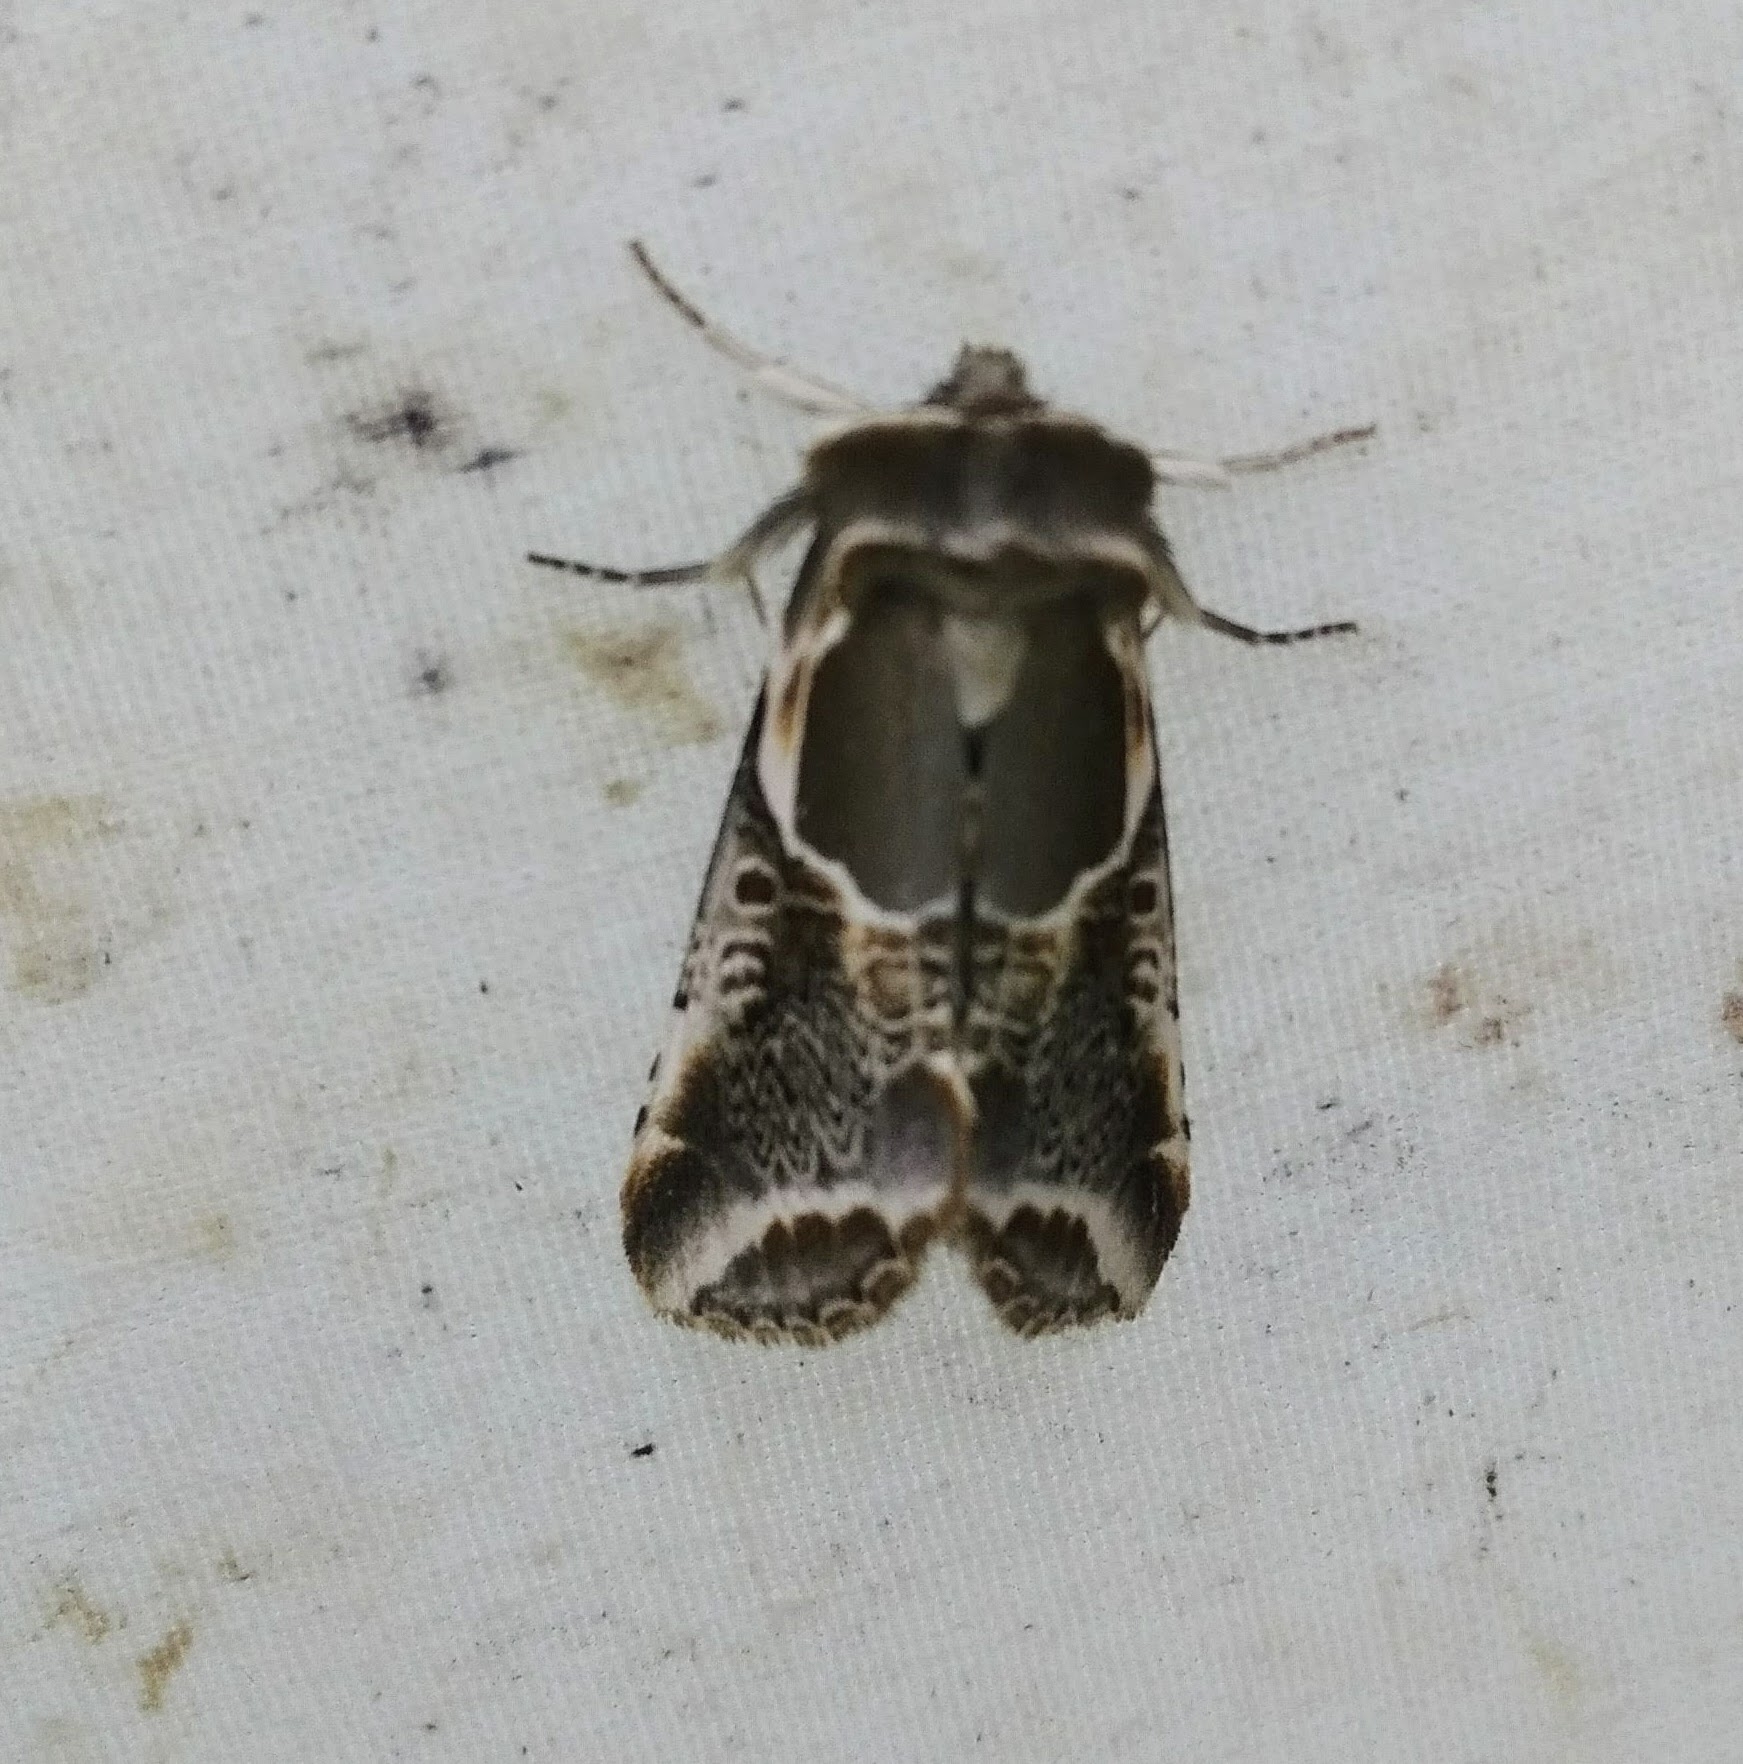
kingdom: Animalia
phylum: Arthropoda
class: Insecta
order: Lepidoptera
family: Drepanidae
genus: Habrosyne
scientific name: Habrosyne scripta
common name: Lettered habrosyne moth
